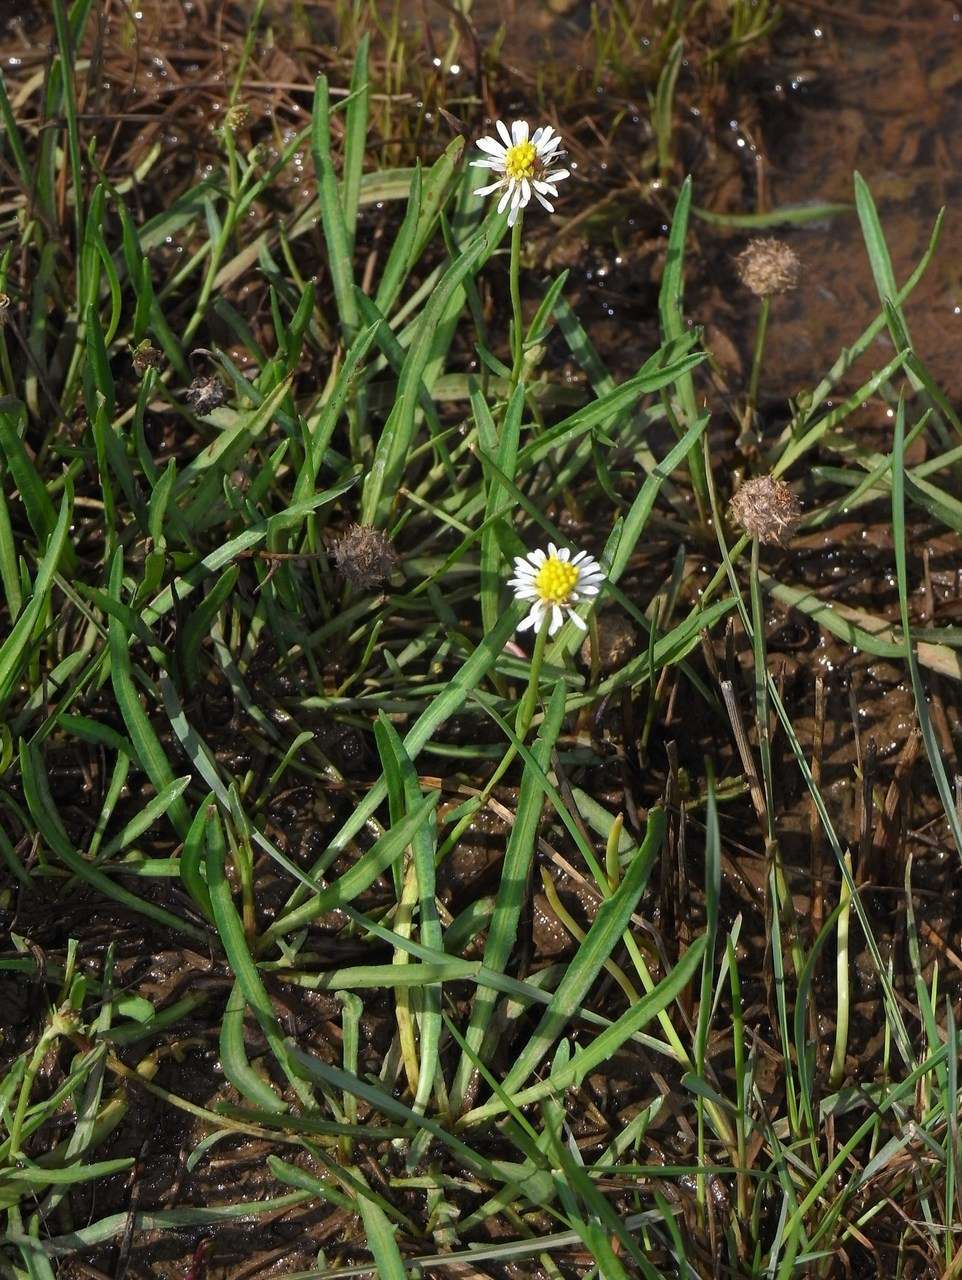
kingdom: Plantae
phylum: Tracheophyta
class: Magnoliopsida
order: Asterales
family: Asteraceae
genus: Calotis
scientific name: Calotis scapigera
